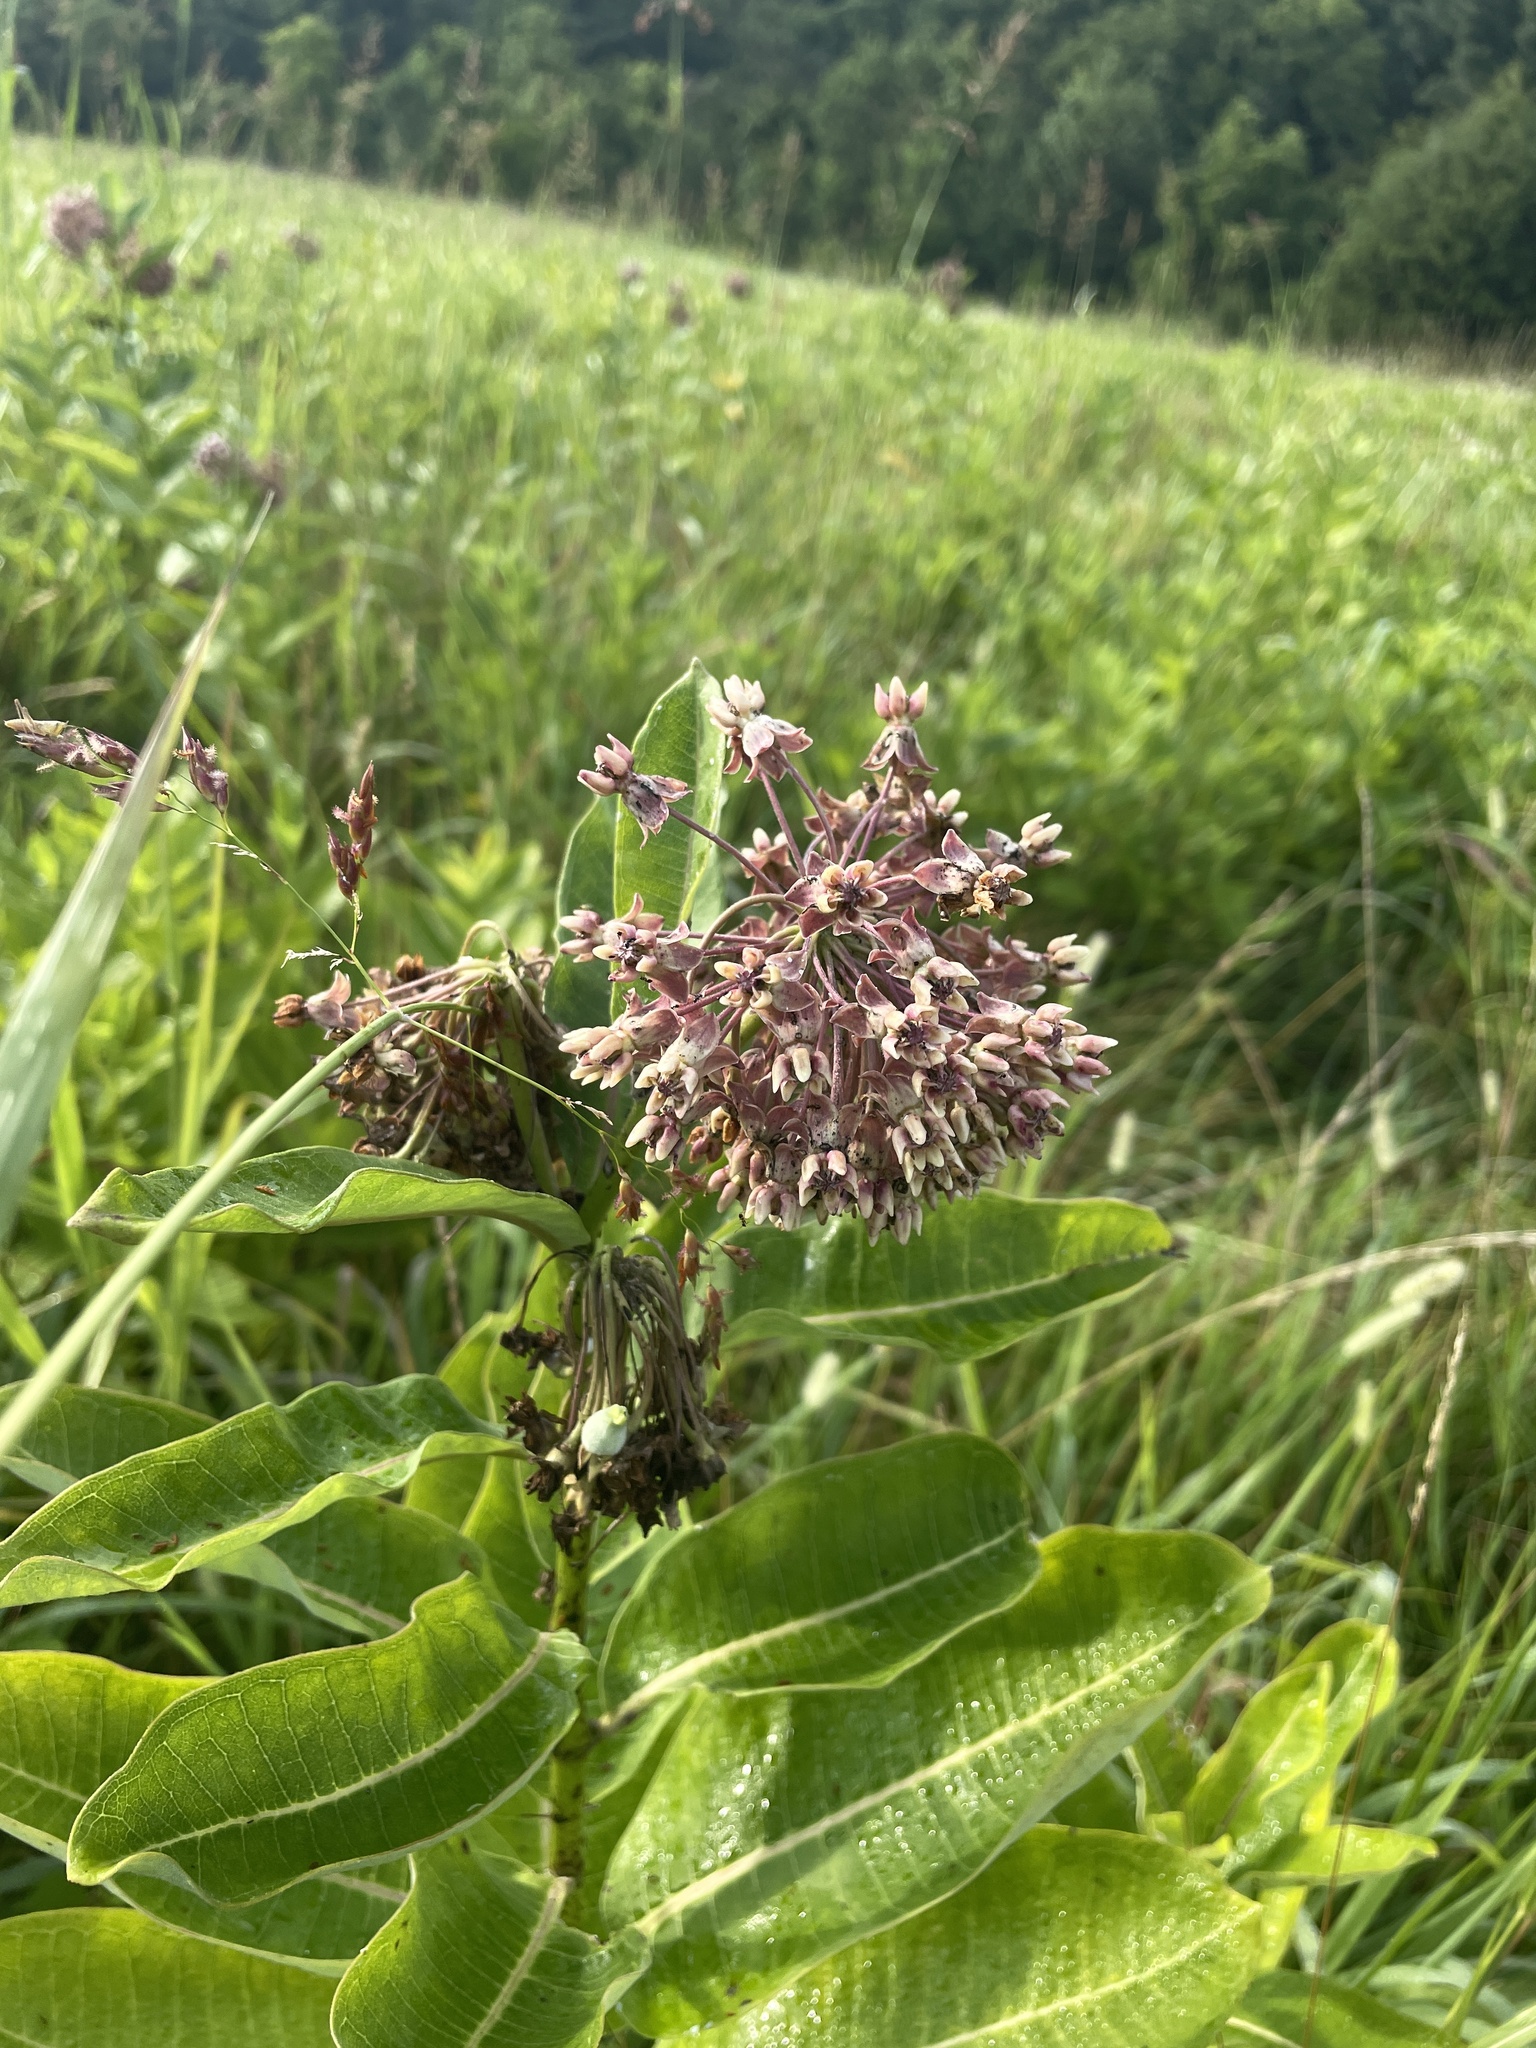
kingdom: Plantae
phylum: Tracheophyta
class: Magnoliopsida
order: Gentianales
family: Apocynaceae
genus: Asclepias
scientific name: Asclepias syriaca
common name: Common milkweed
